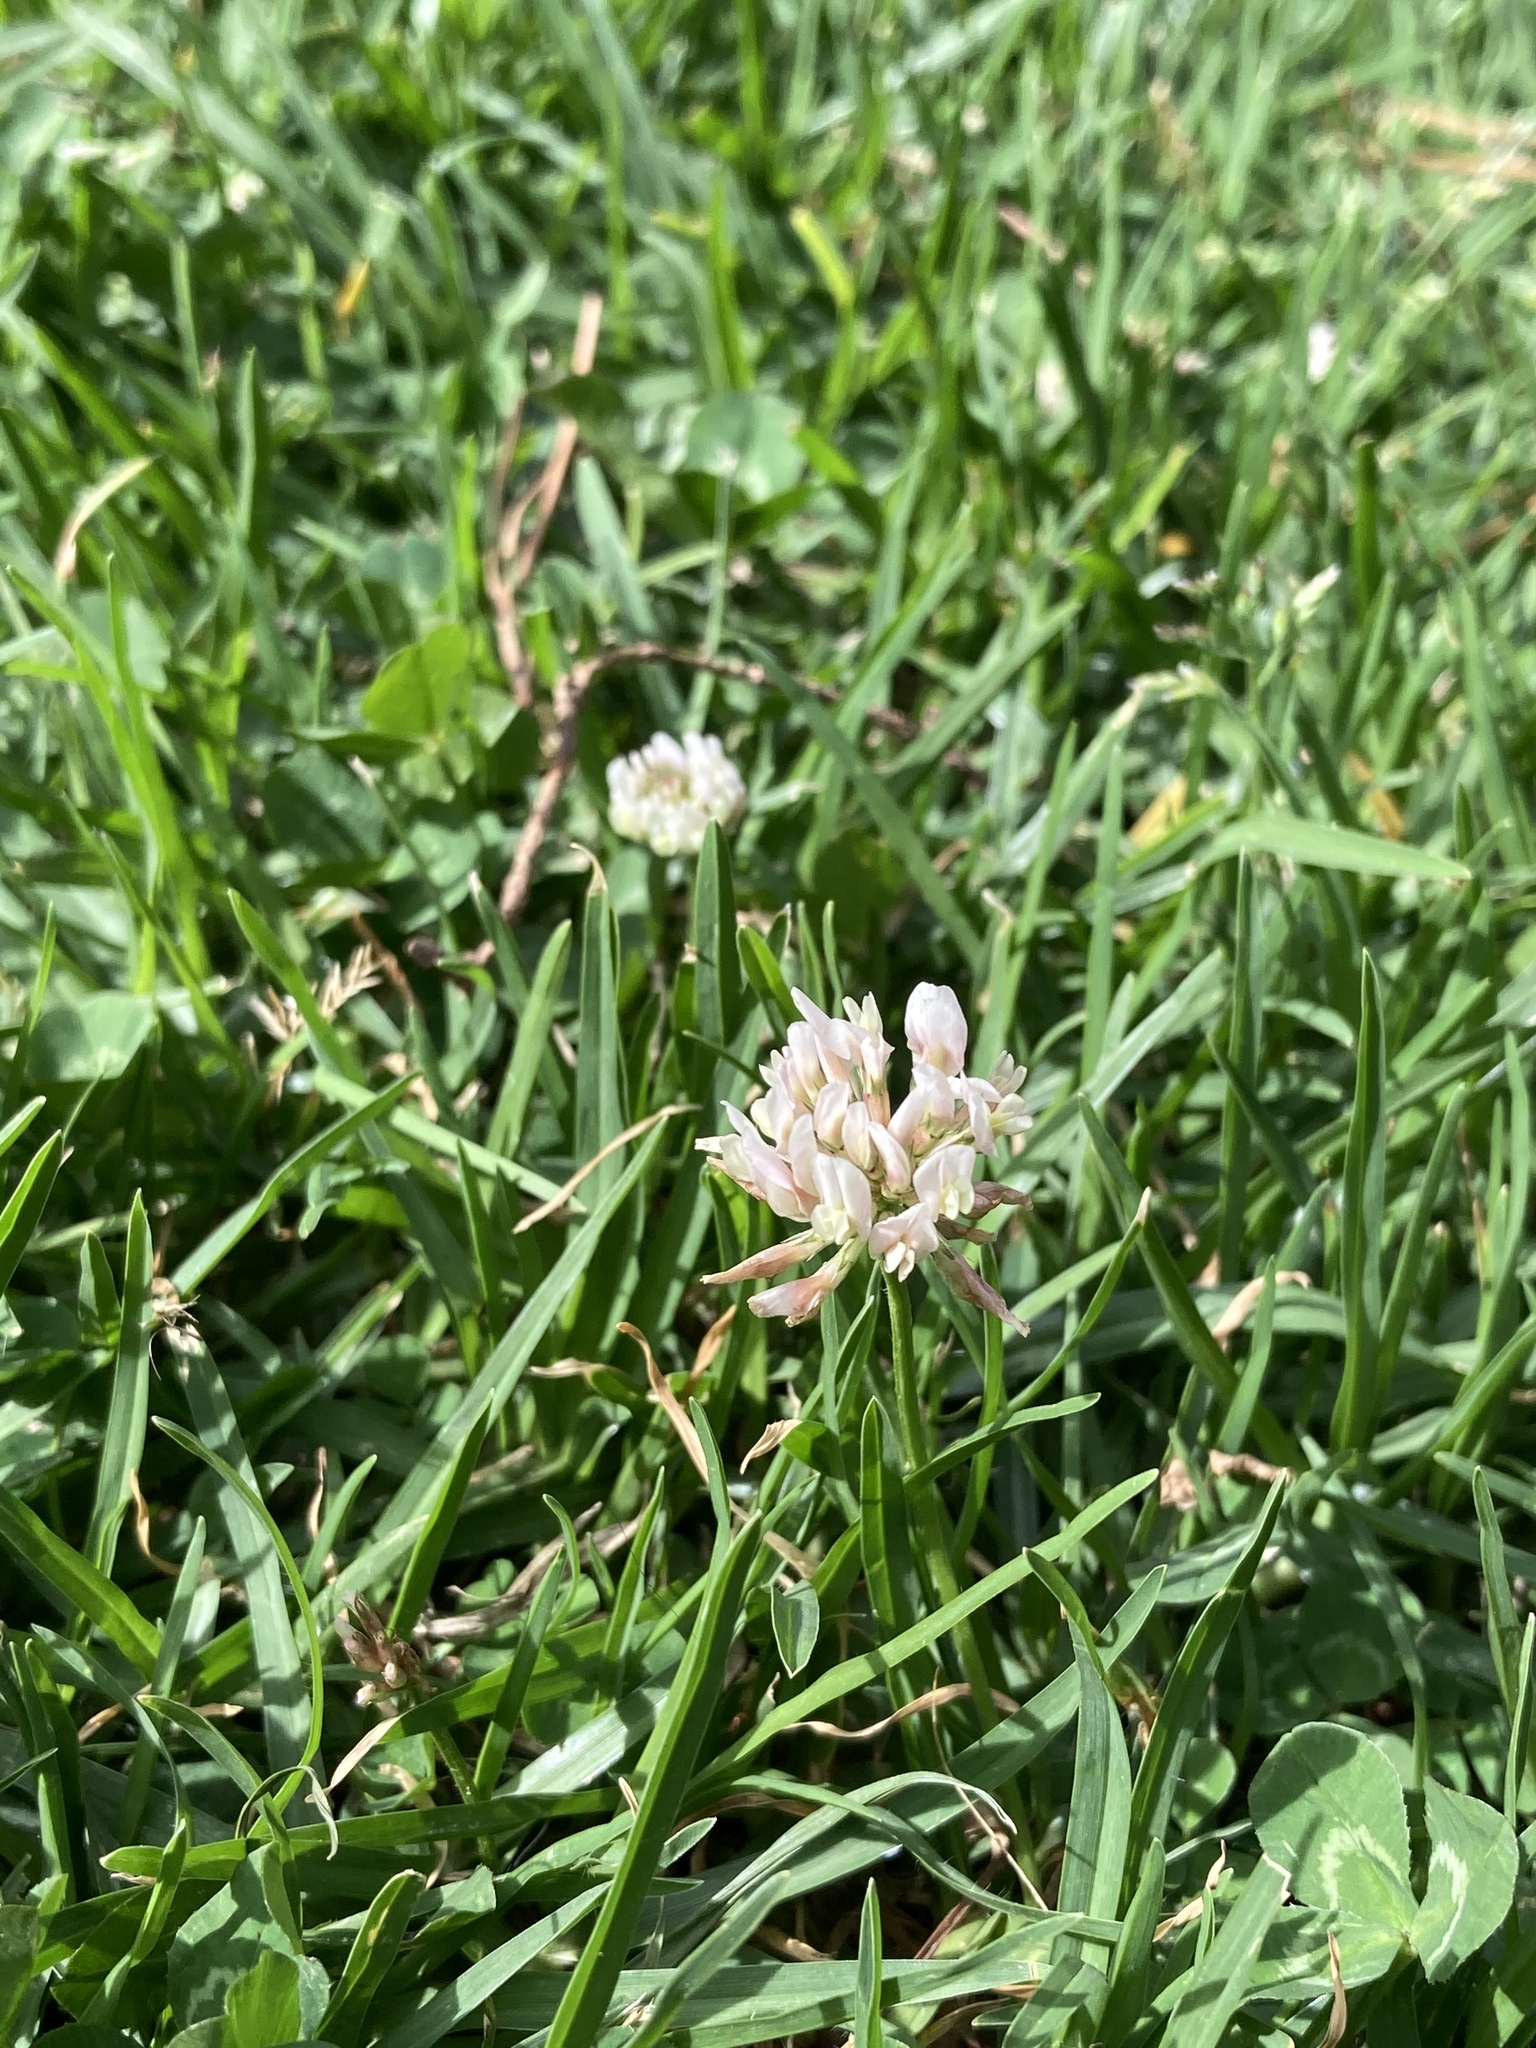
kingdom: Plantae
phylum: Tracheophyta
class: Magnoliopsida
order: Fabales
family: Fabaceae
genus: Trifolium
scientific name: Trifolium repens
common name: White clover
